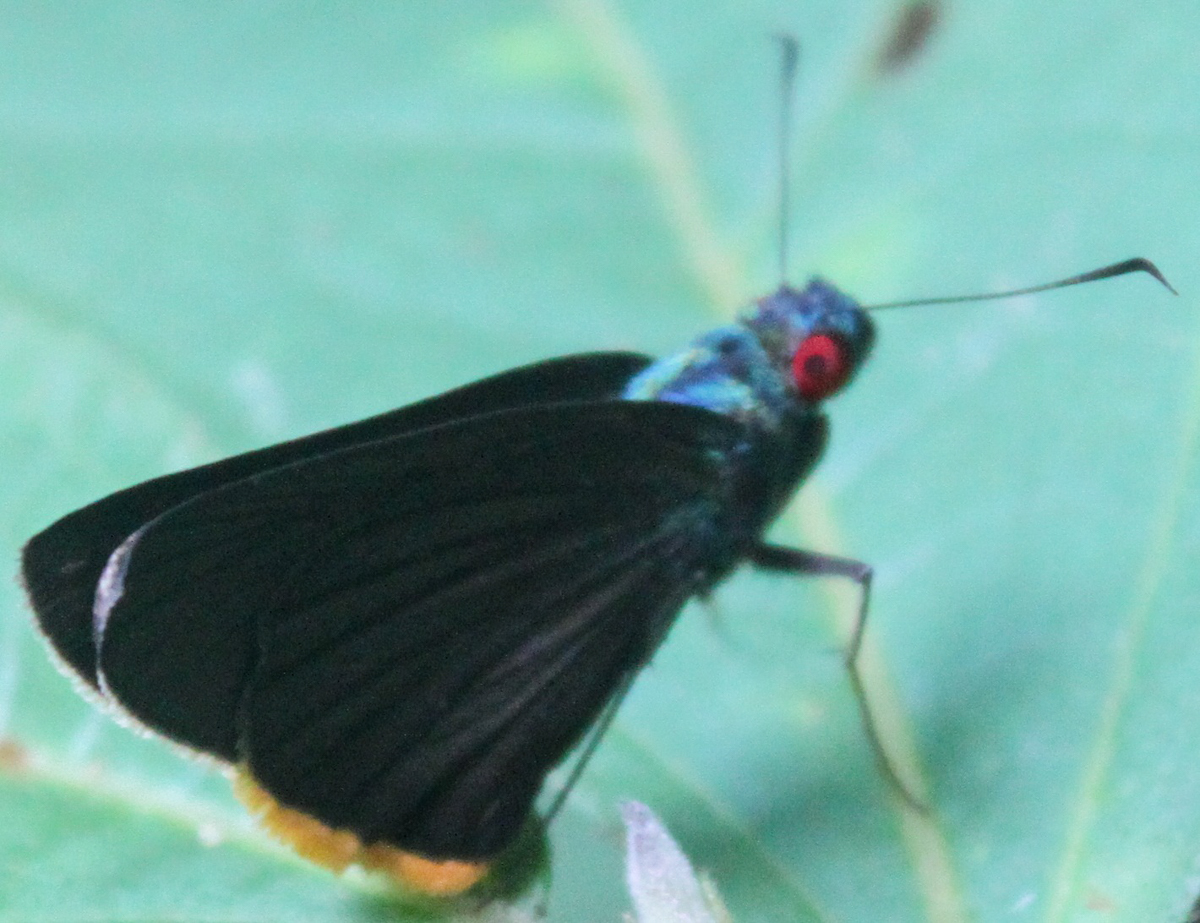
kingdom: Animalia
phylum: Arthropoda
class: Insecta
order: Lepidoptera
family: Hesperiidae
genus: Matapa
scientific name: Matapa sasivarna
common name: Black-veined redeye
